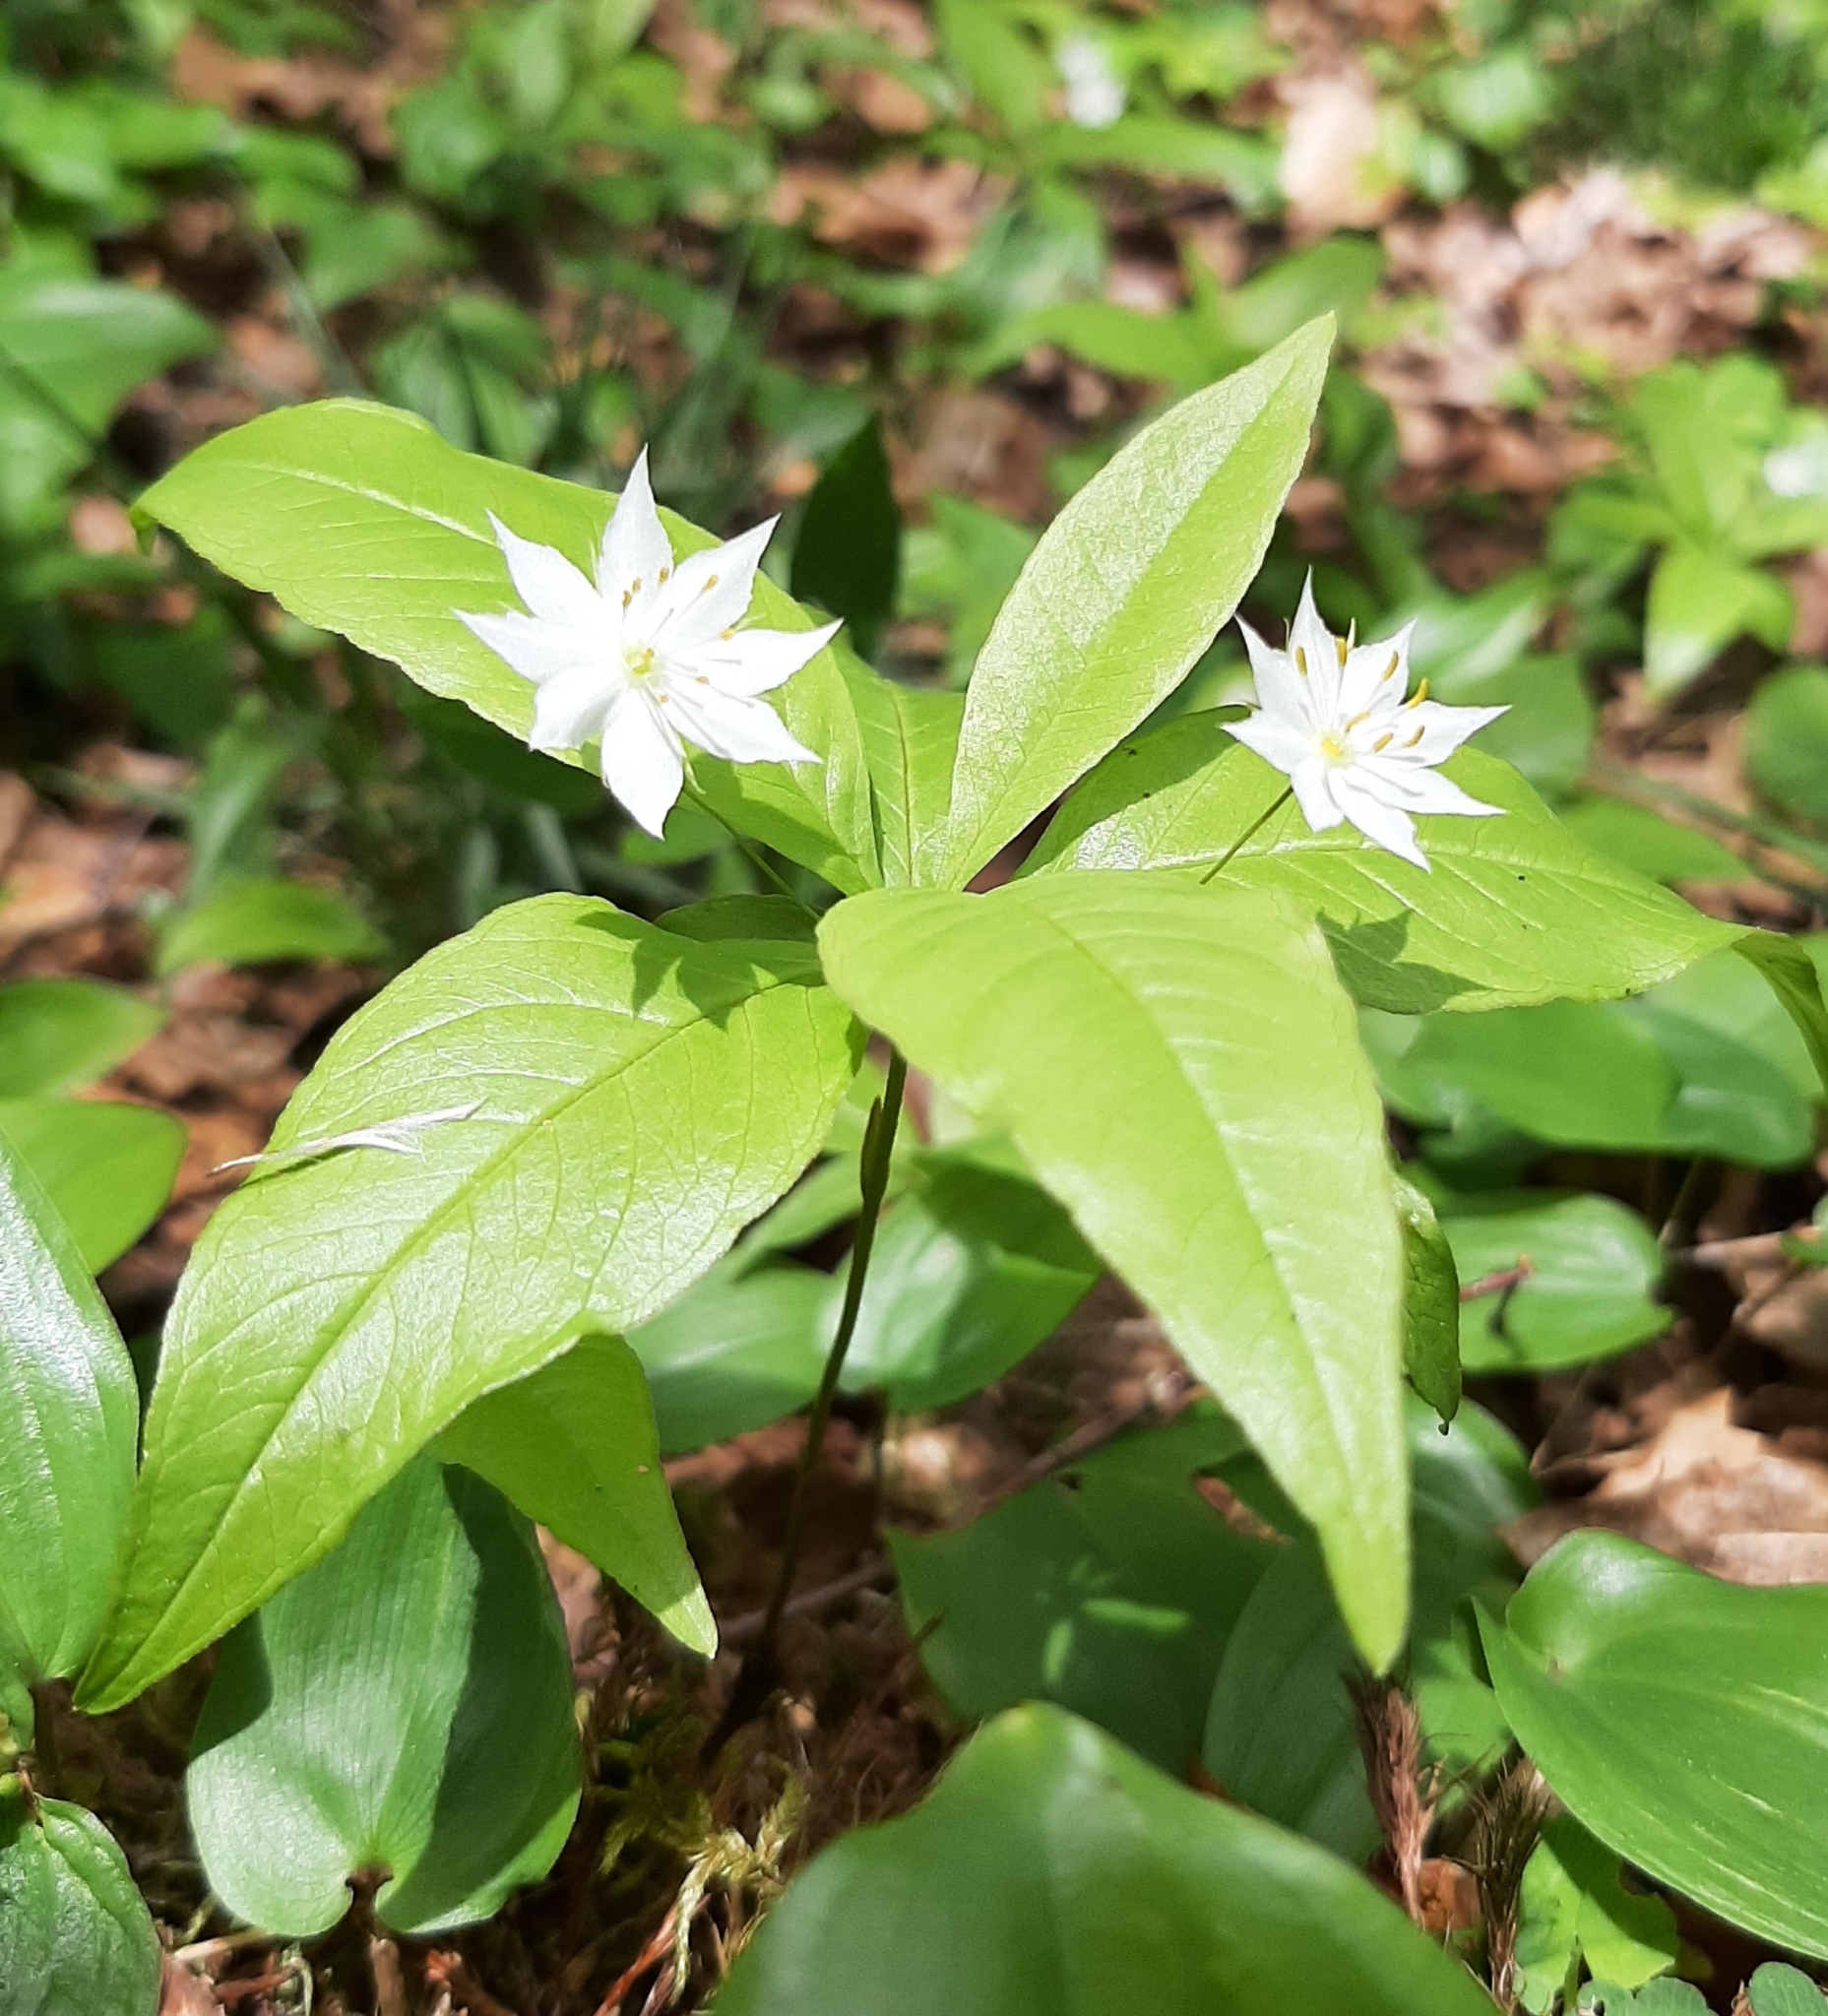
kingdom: Plantae
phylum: Tracheophyta
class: Magnoliopsida
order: Ericales
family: Primulaceae
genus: Lysimachia
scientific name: Lysimachia borealis
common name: American starflower
